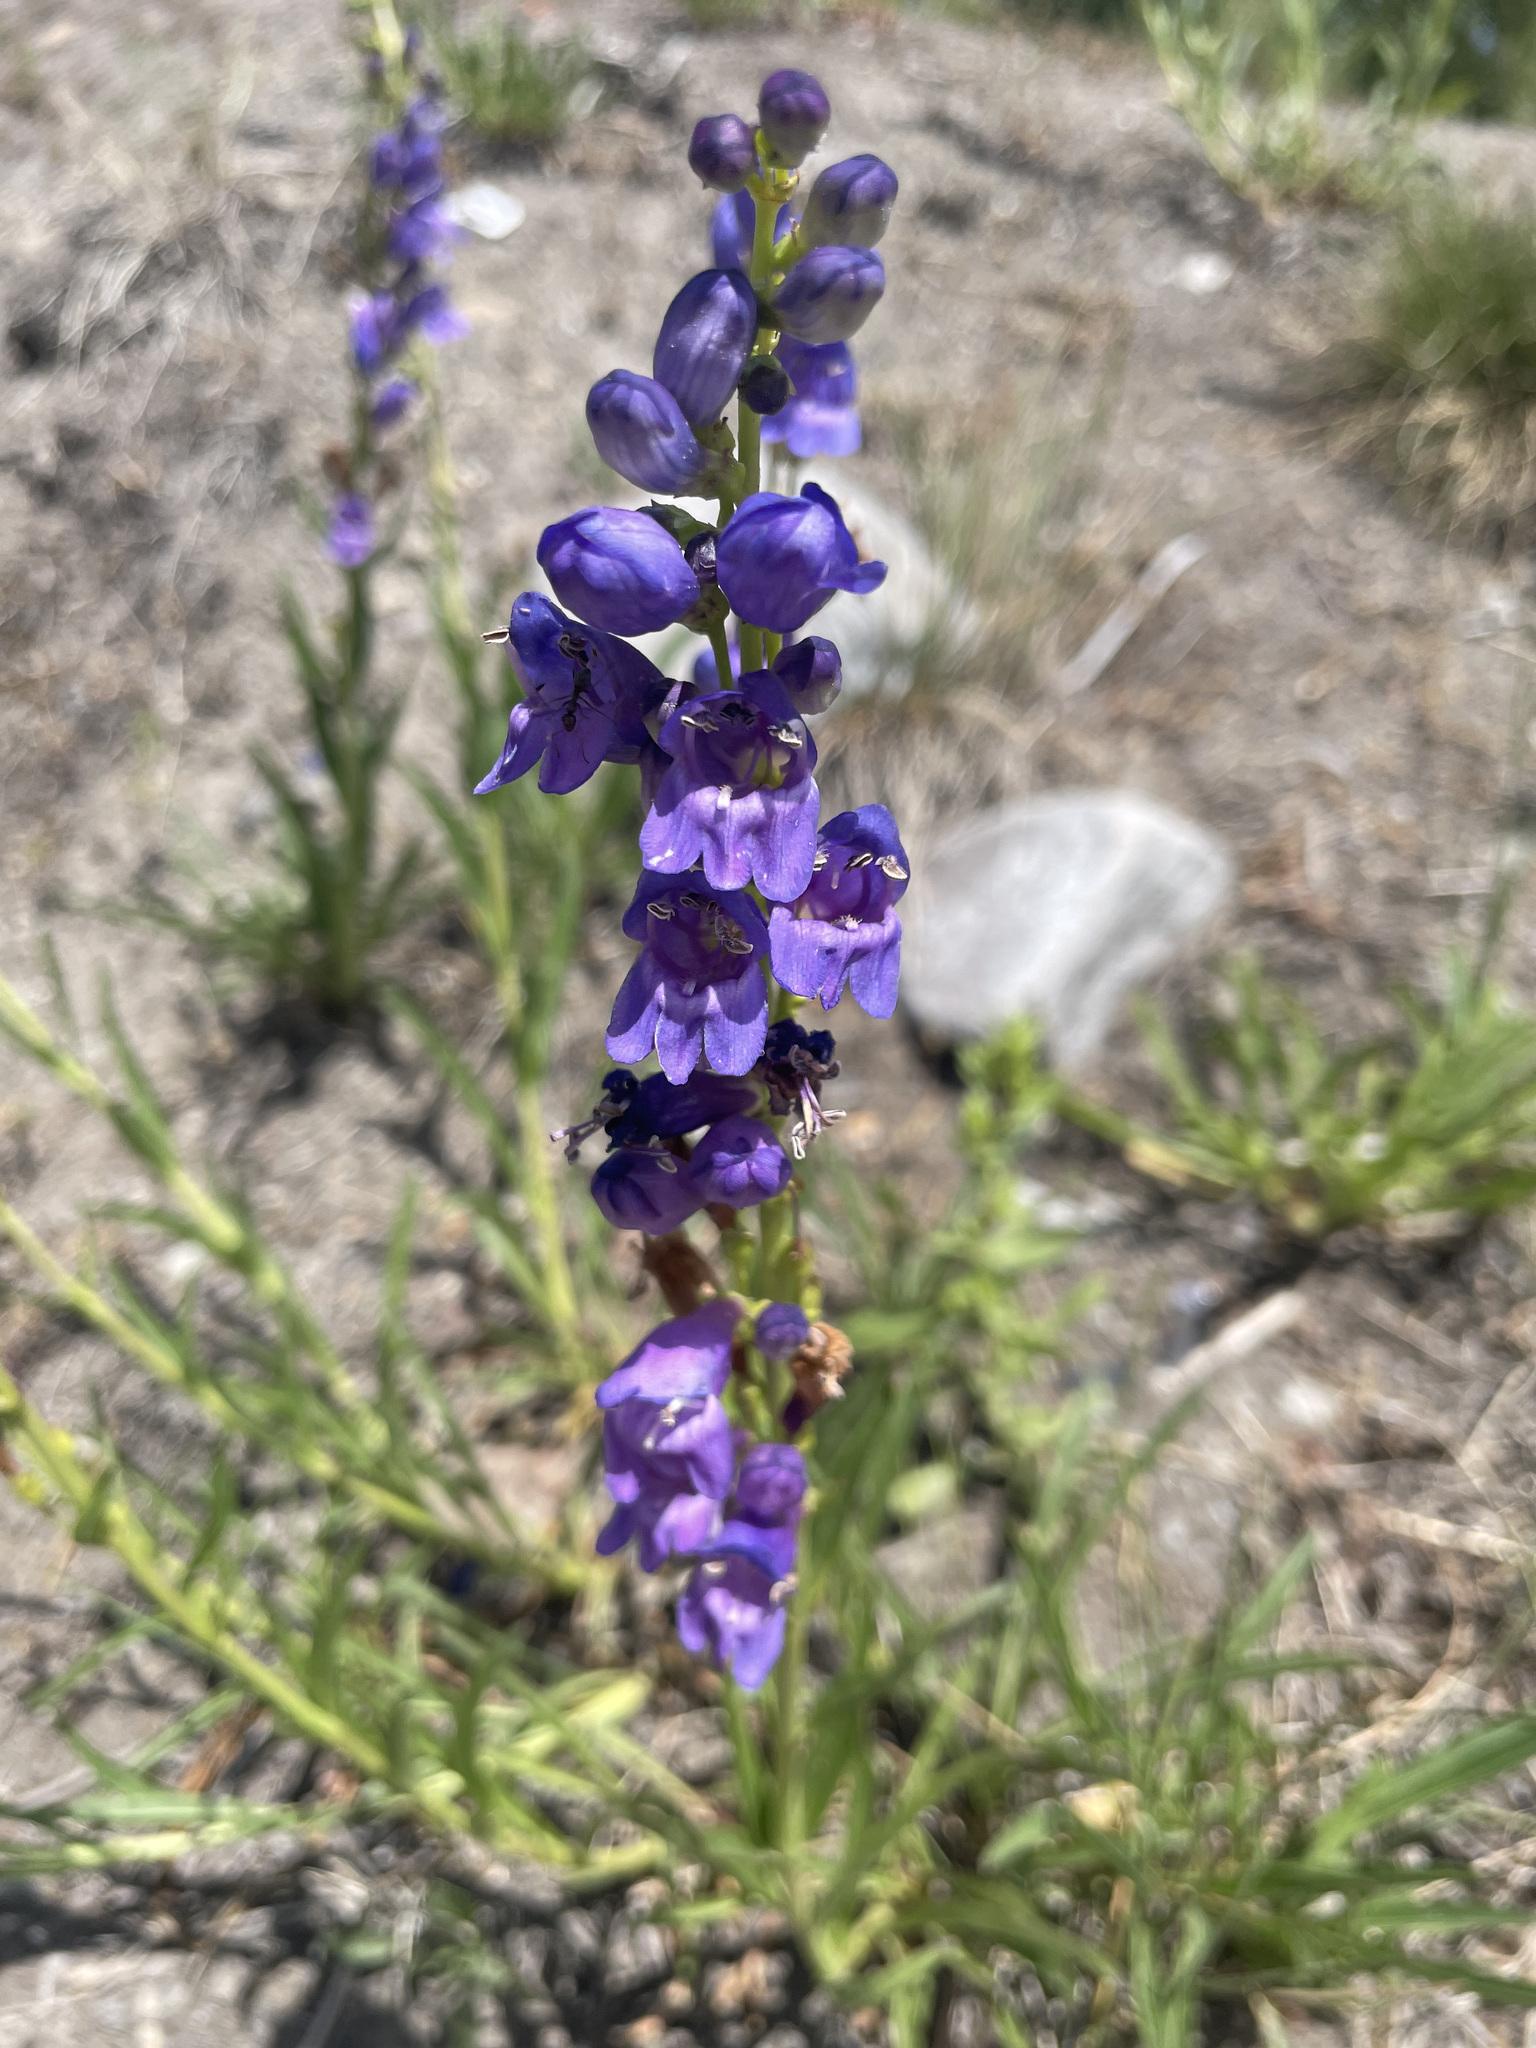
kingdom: Plantae
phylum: Tracheophyta
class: Magnoliopsida
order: Lamiales
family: Plantaginaceae
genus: Penstemon
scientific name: Penstemon strictus
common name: Rocky mountain penstemon
